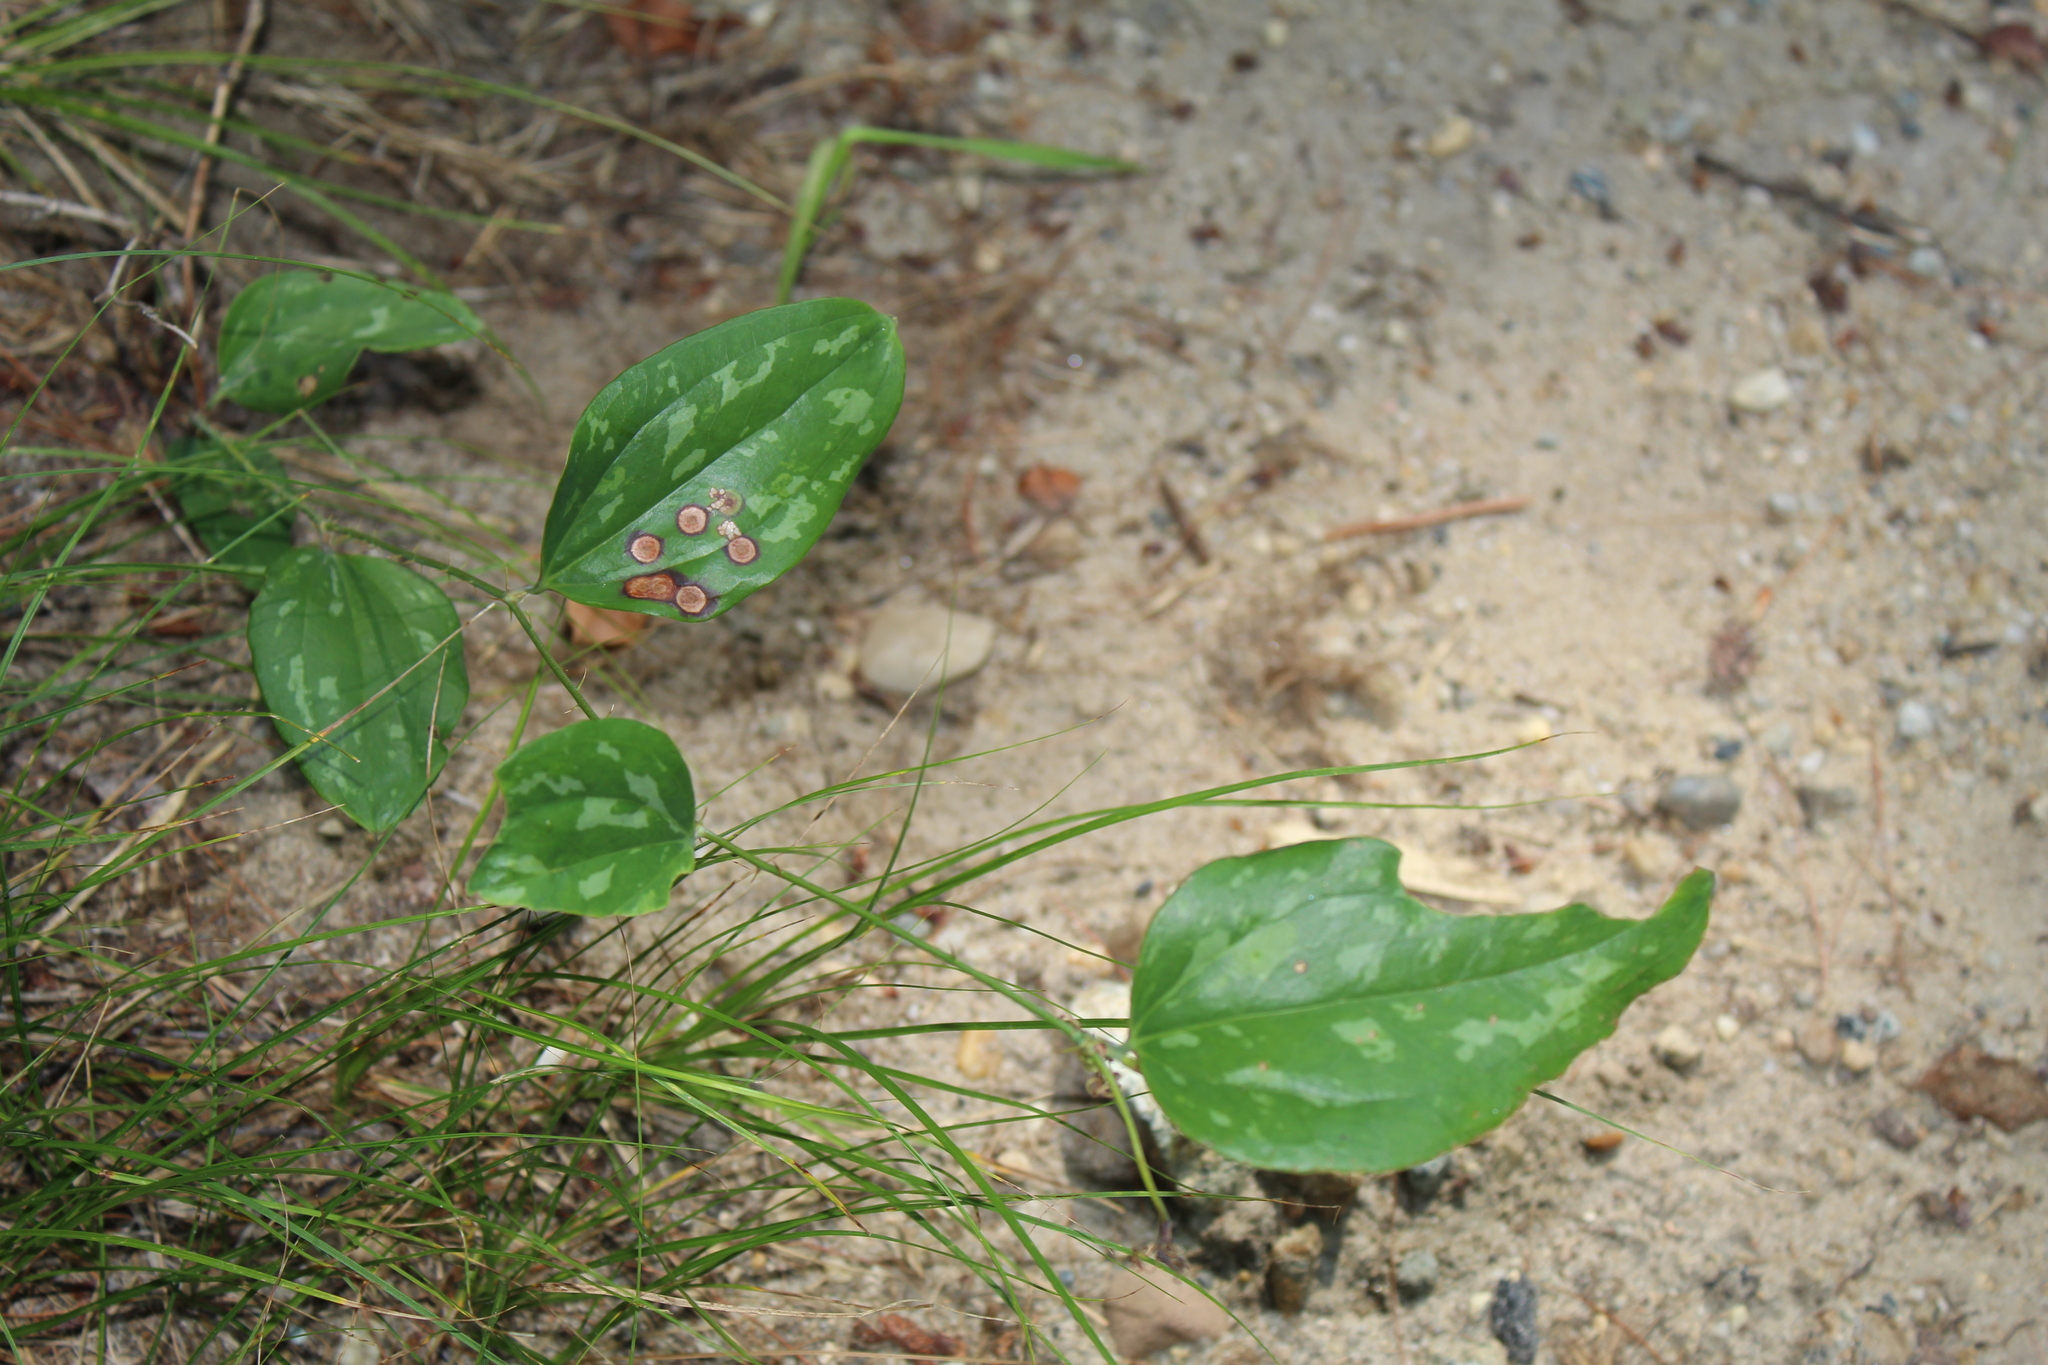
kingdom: Plantae
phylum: Tracheophyta
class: Liliopsida
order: Liliales
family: Smilacaceae
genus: Smilax
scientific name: Smilax glauca
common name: Cat greenbrier
